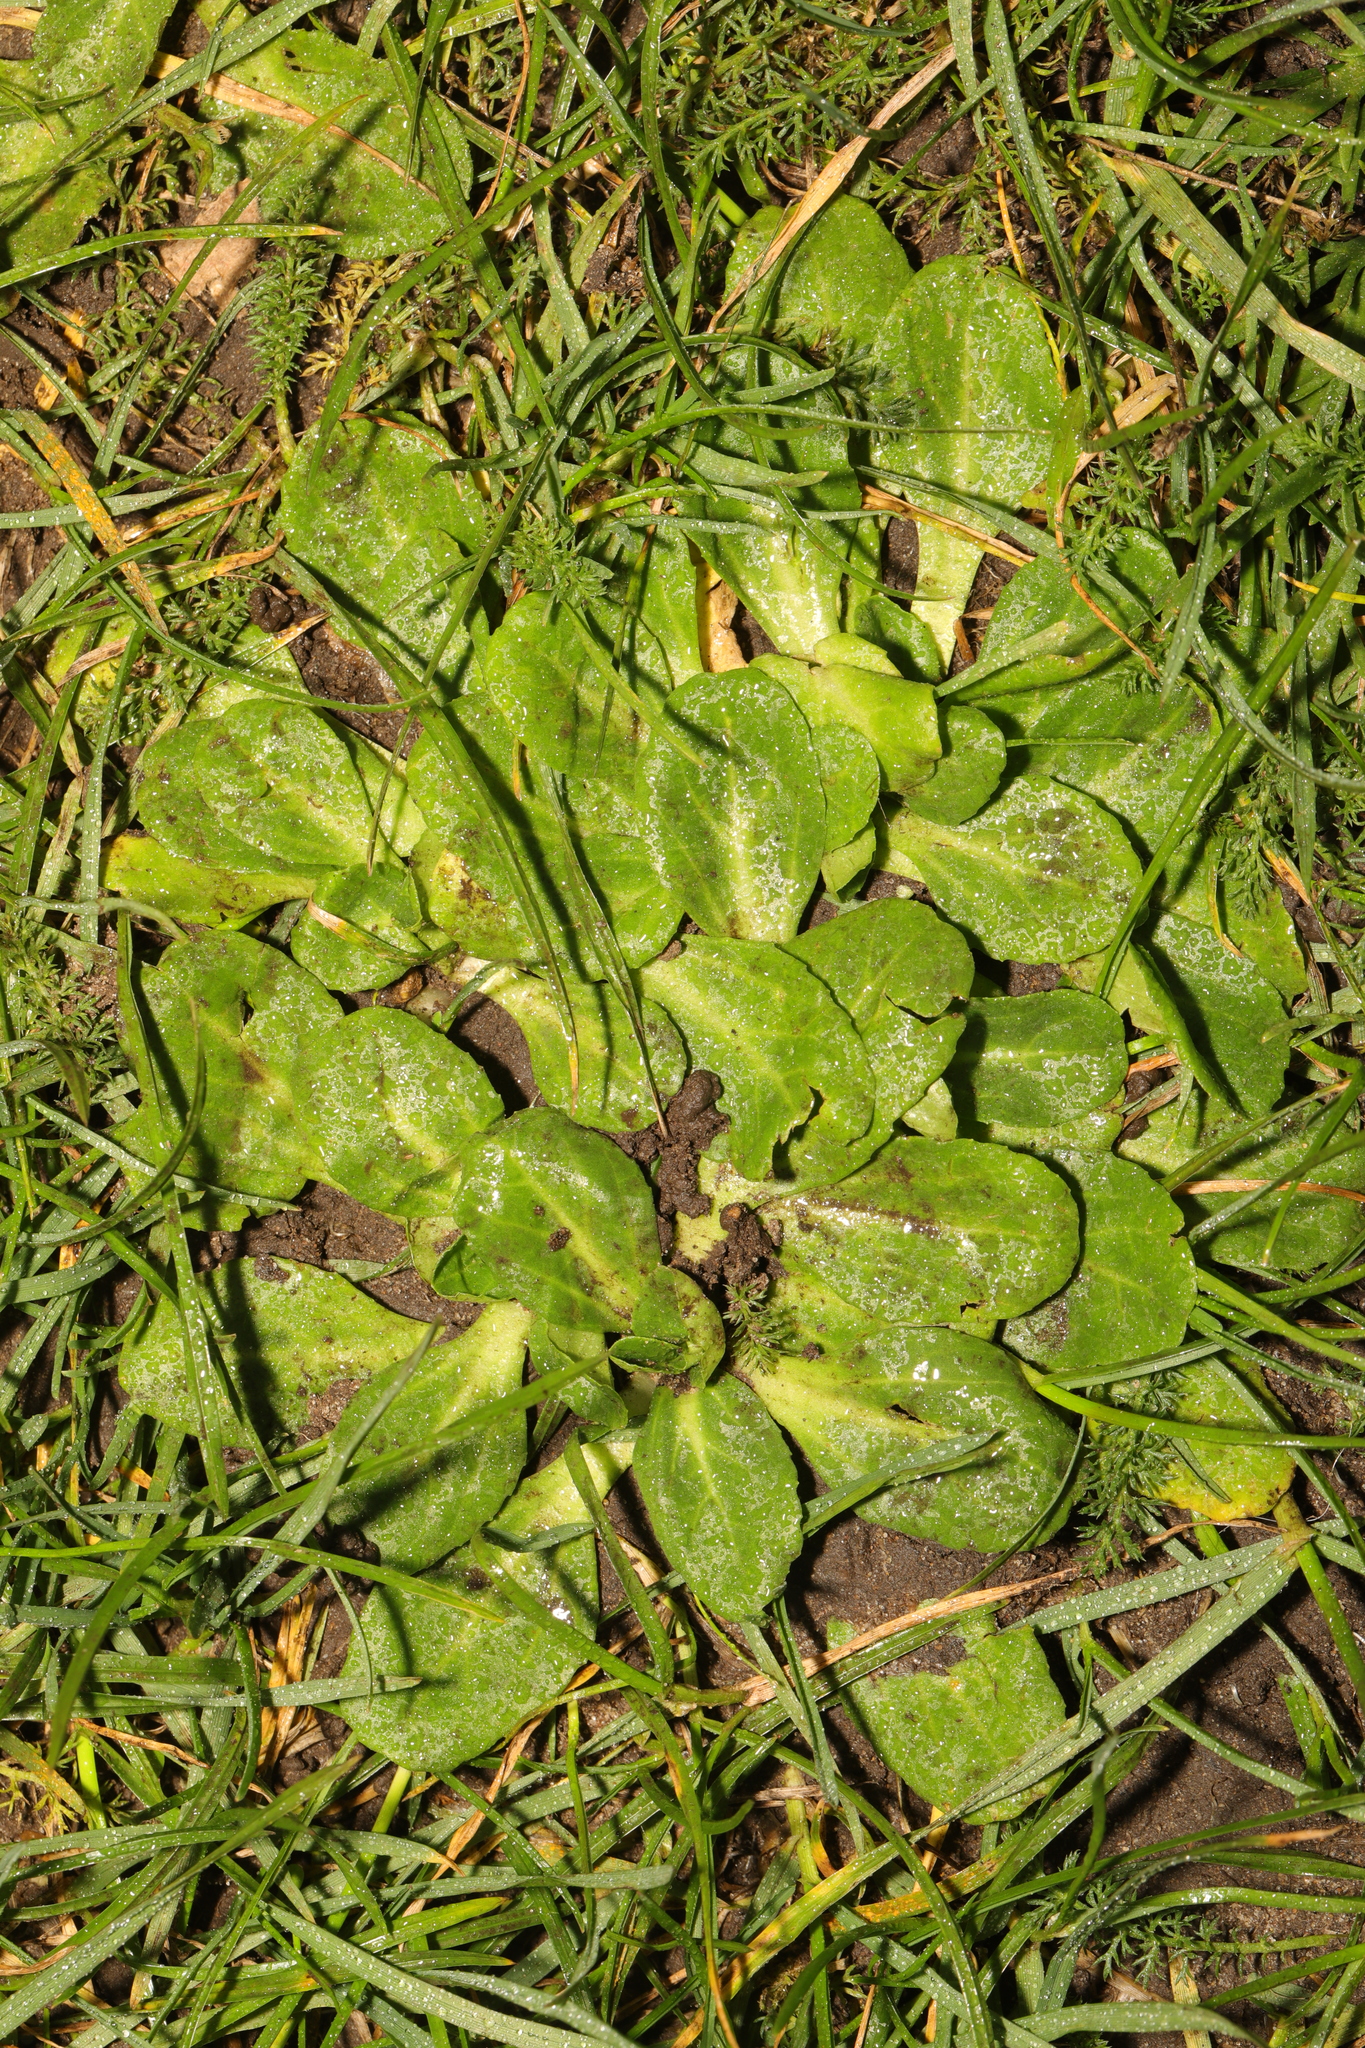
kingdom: Plantae
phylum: Tracheophyta
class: Magnoliopsida
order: Asterales
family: Asteraceae
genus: Bellis
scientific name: Bellis perennis
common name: Lawndaisy
